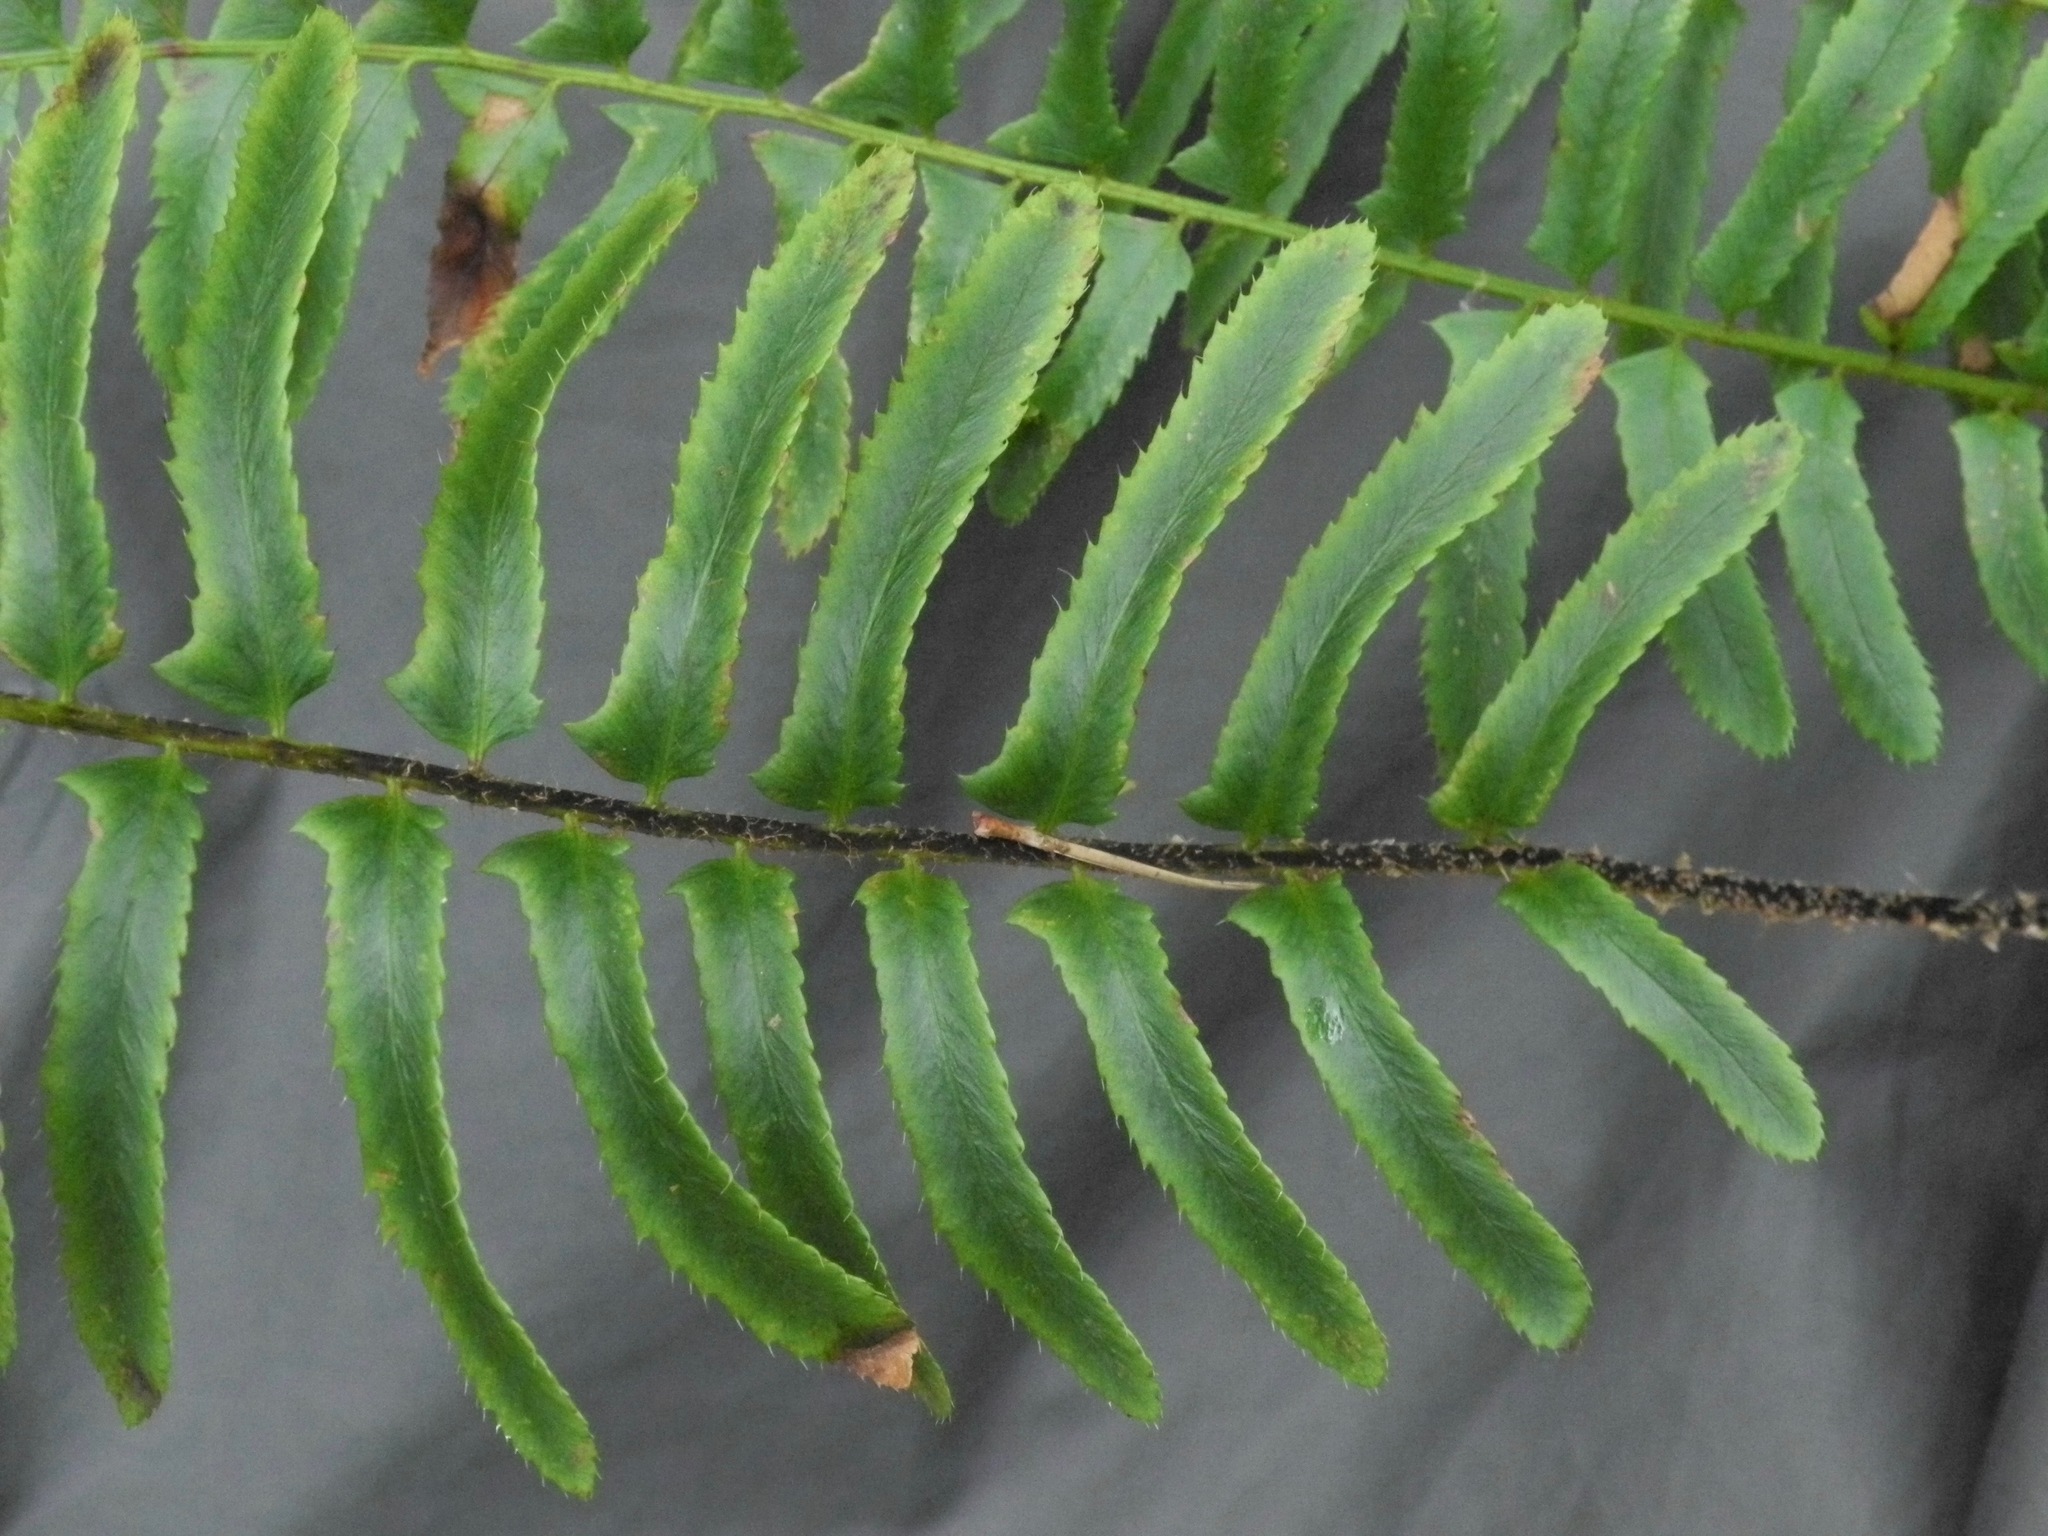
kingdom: Plantae
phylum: Tracheophyta
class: Polypodiopsida
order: Polypodiales
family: Dryopteridaceae
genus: Polystichum
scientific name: Polystichum acrostichoides
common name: Christmas fern
